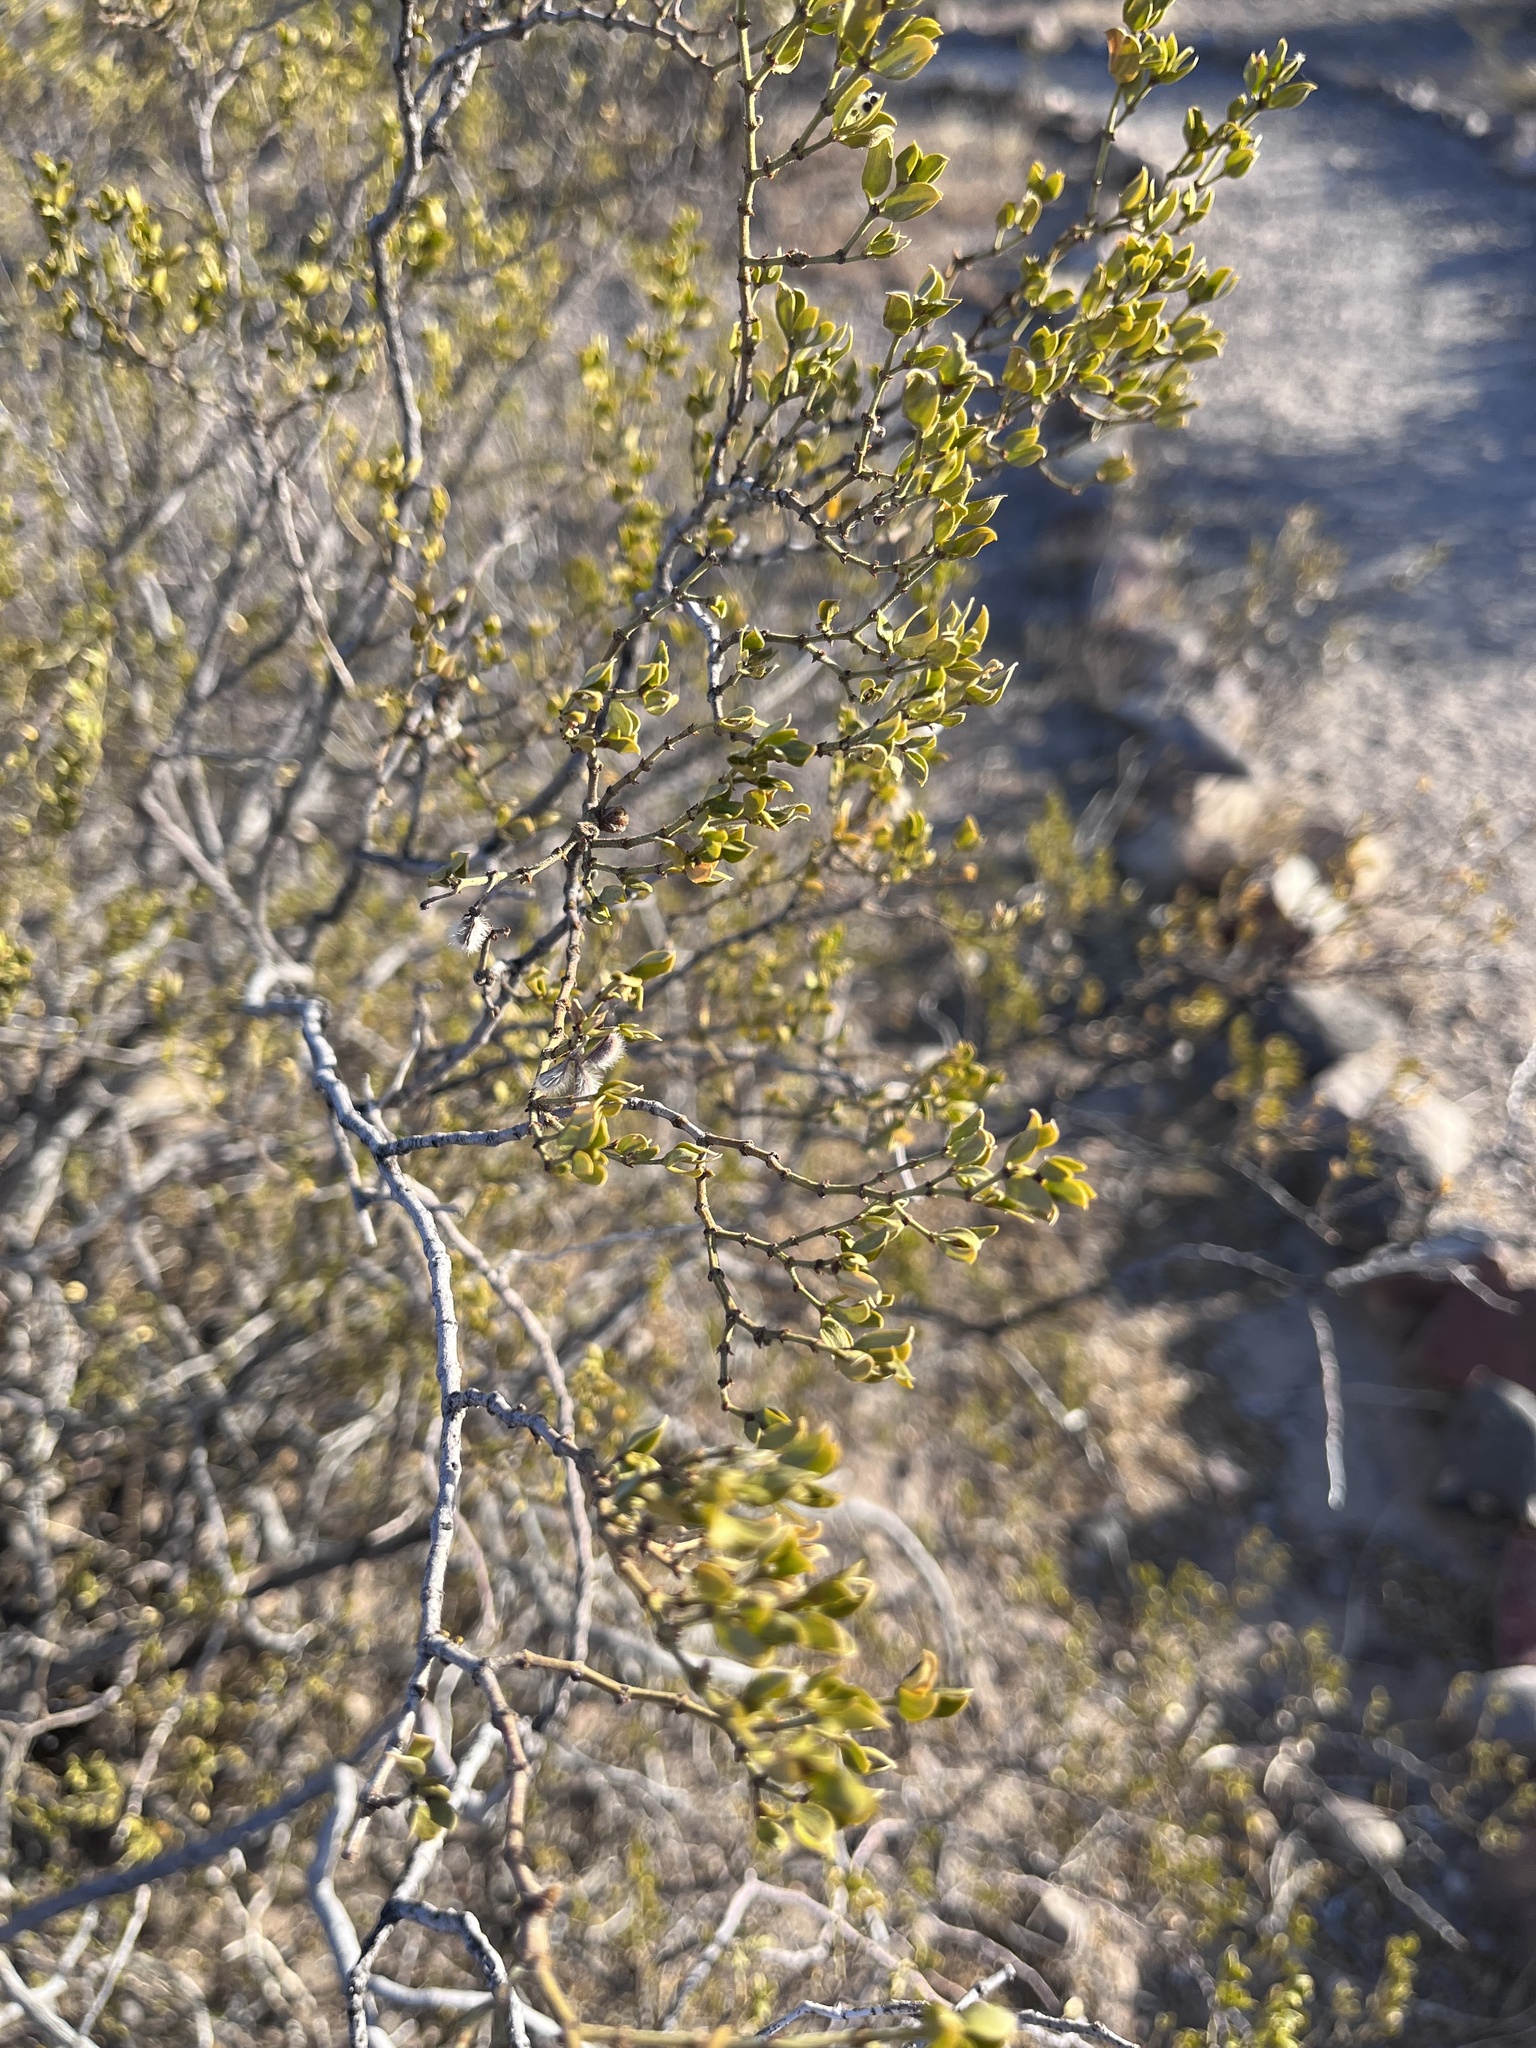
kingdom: Plantae
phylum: Tracheophyta
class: Magnoliopsida
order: Zygophyllales
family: Zygophyllaceae
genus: Larrea
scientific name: Larrea tridentata
